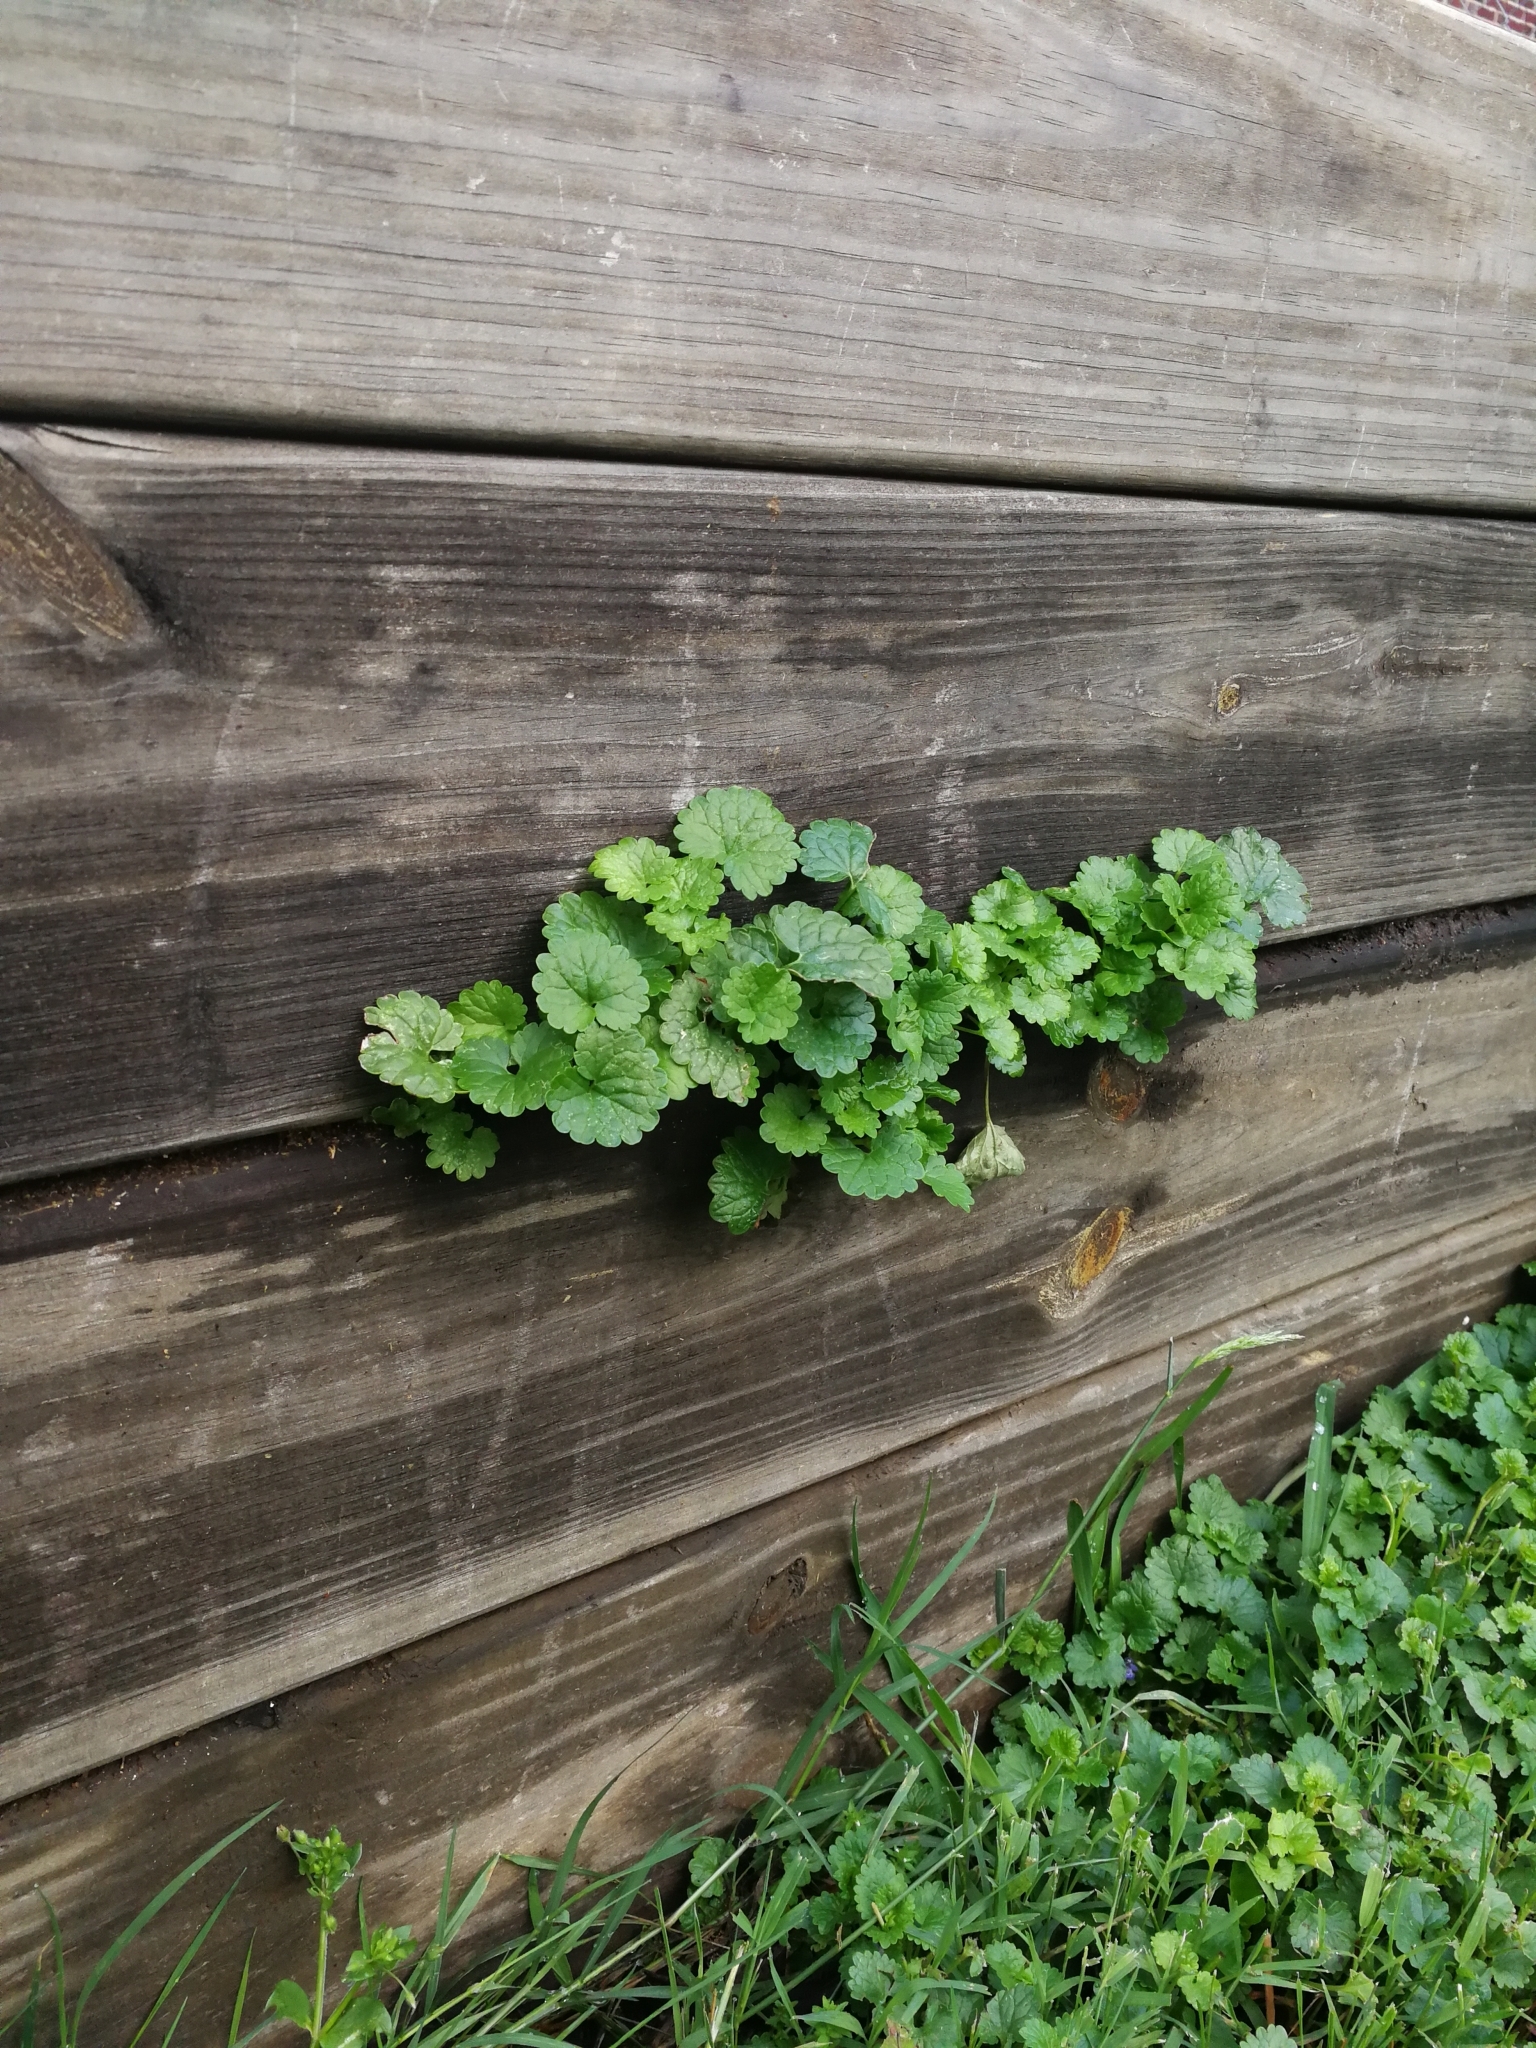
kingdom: Plantae
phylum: Tracheophyta
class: Magnoliopsida
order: Lamiales
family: Lamiaceae
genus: Glechoma
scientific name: Glechoma hederacea
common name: Ground ivy
